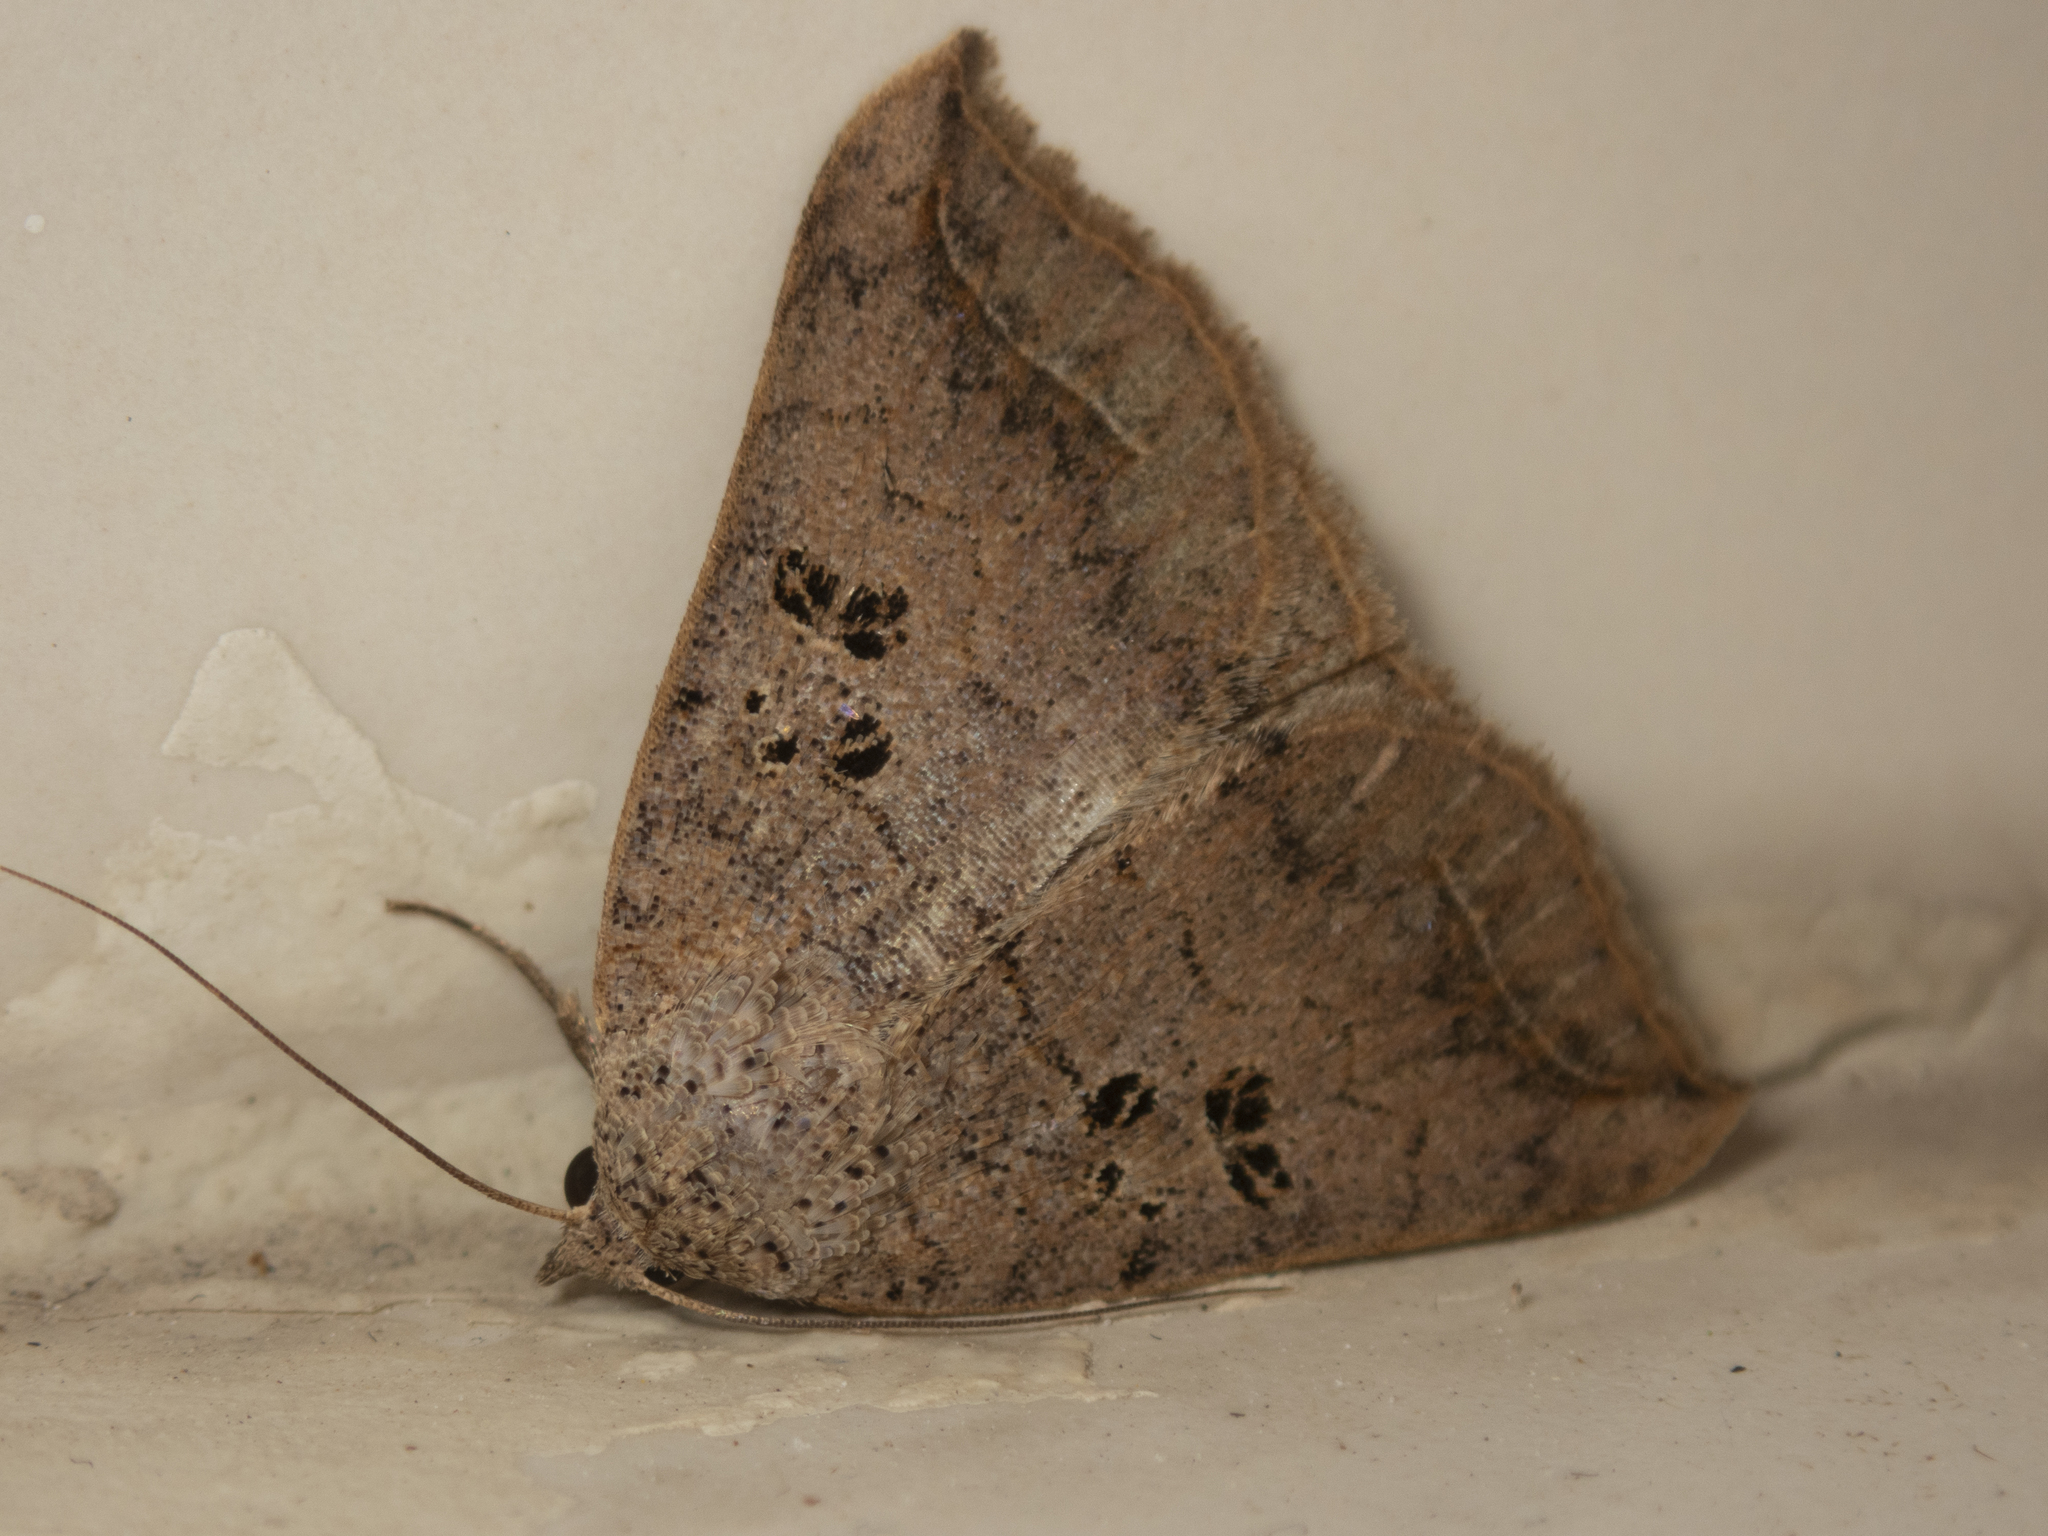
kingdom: Animalia
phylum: Arthropoda
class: Insecta
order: Lepidoptera
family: Erebidae
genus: Blasticorhinus
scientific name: Blasticorhinus rivulosa
